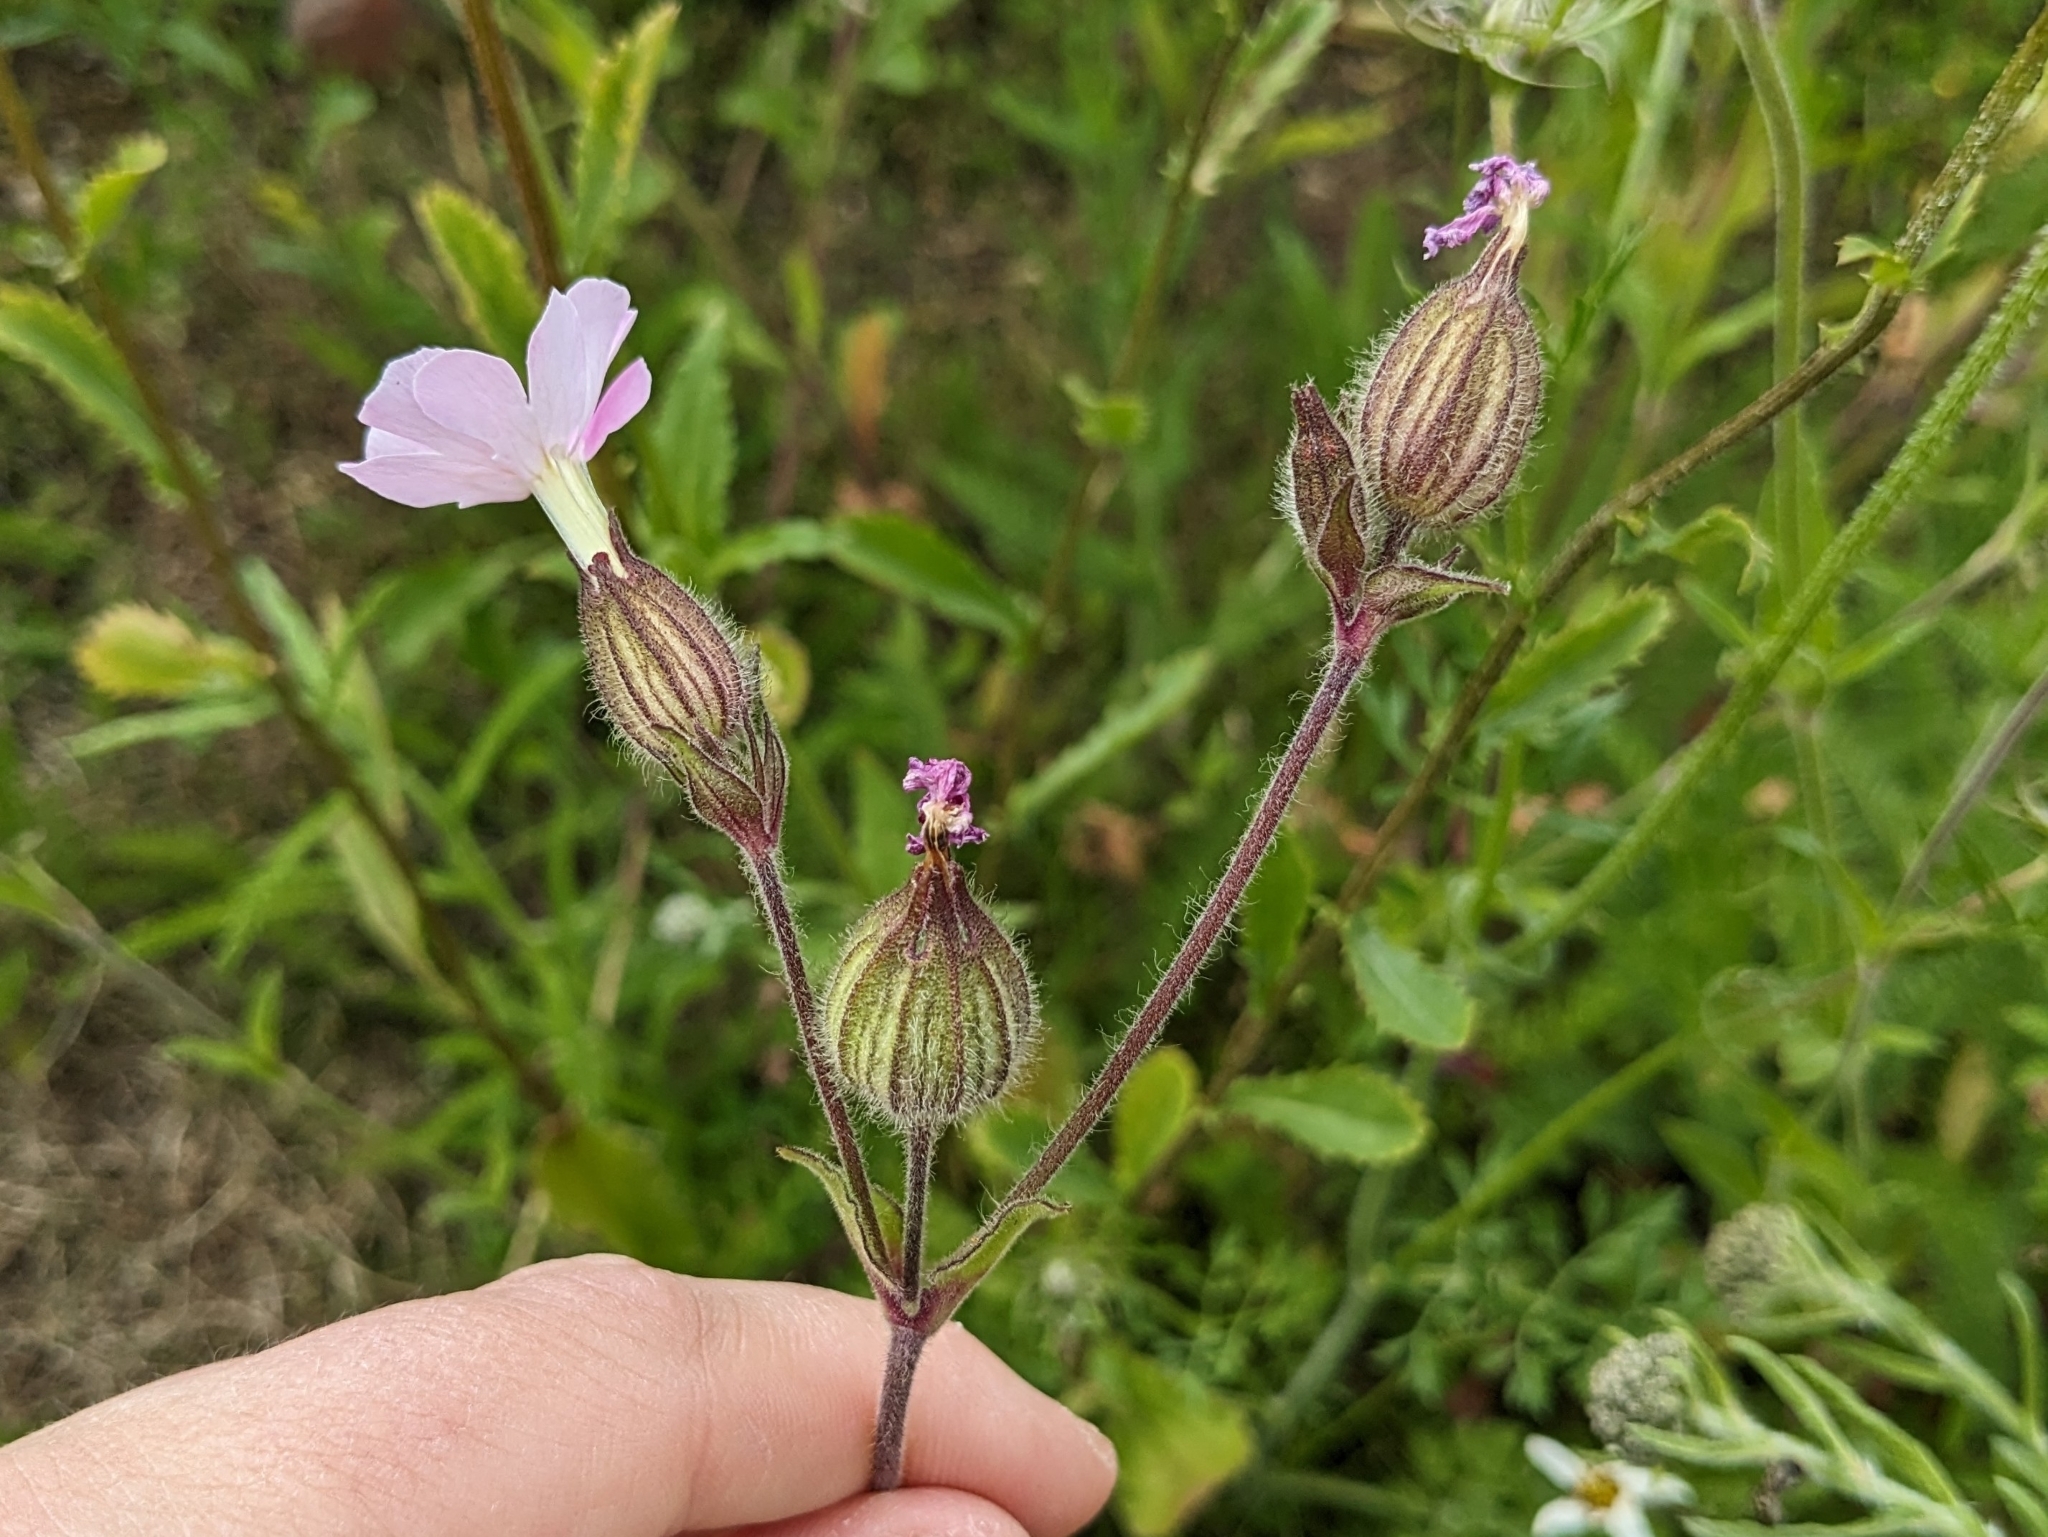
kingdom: Plantae
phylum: Tracheophyta
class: Magnoliopsida
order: Caryophyllales
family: Caryophyllaceae
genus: Silene
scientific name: Silene hampeana
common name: Catchfly
